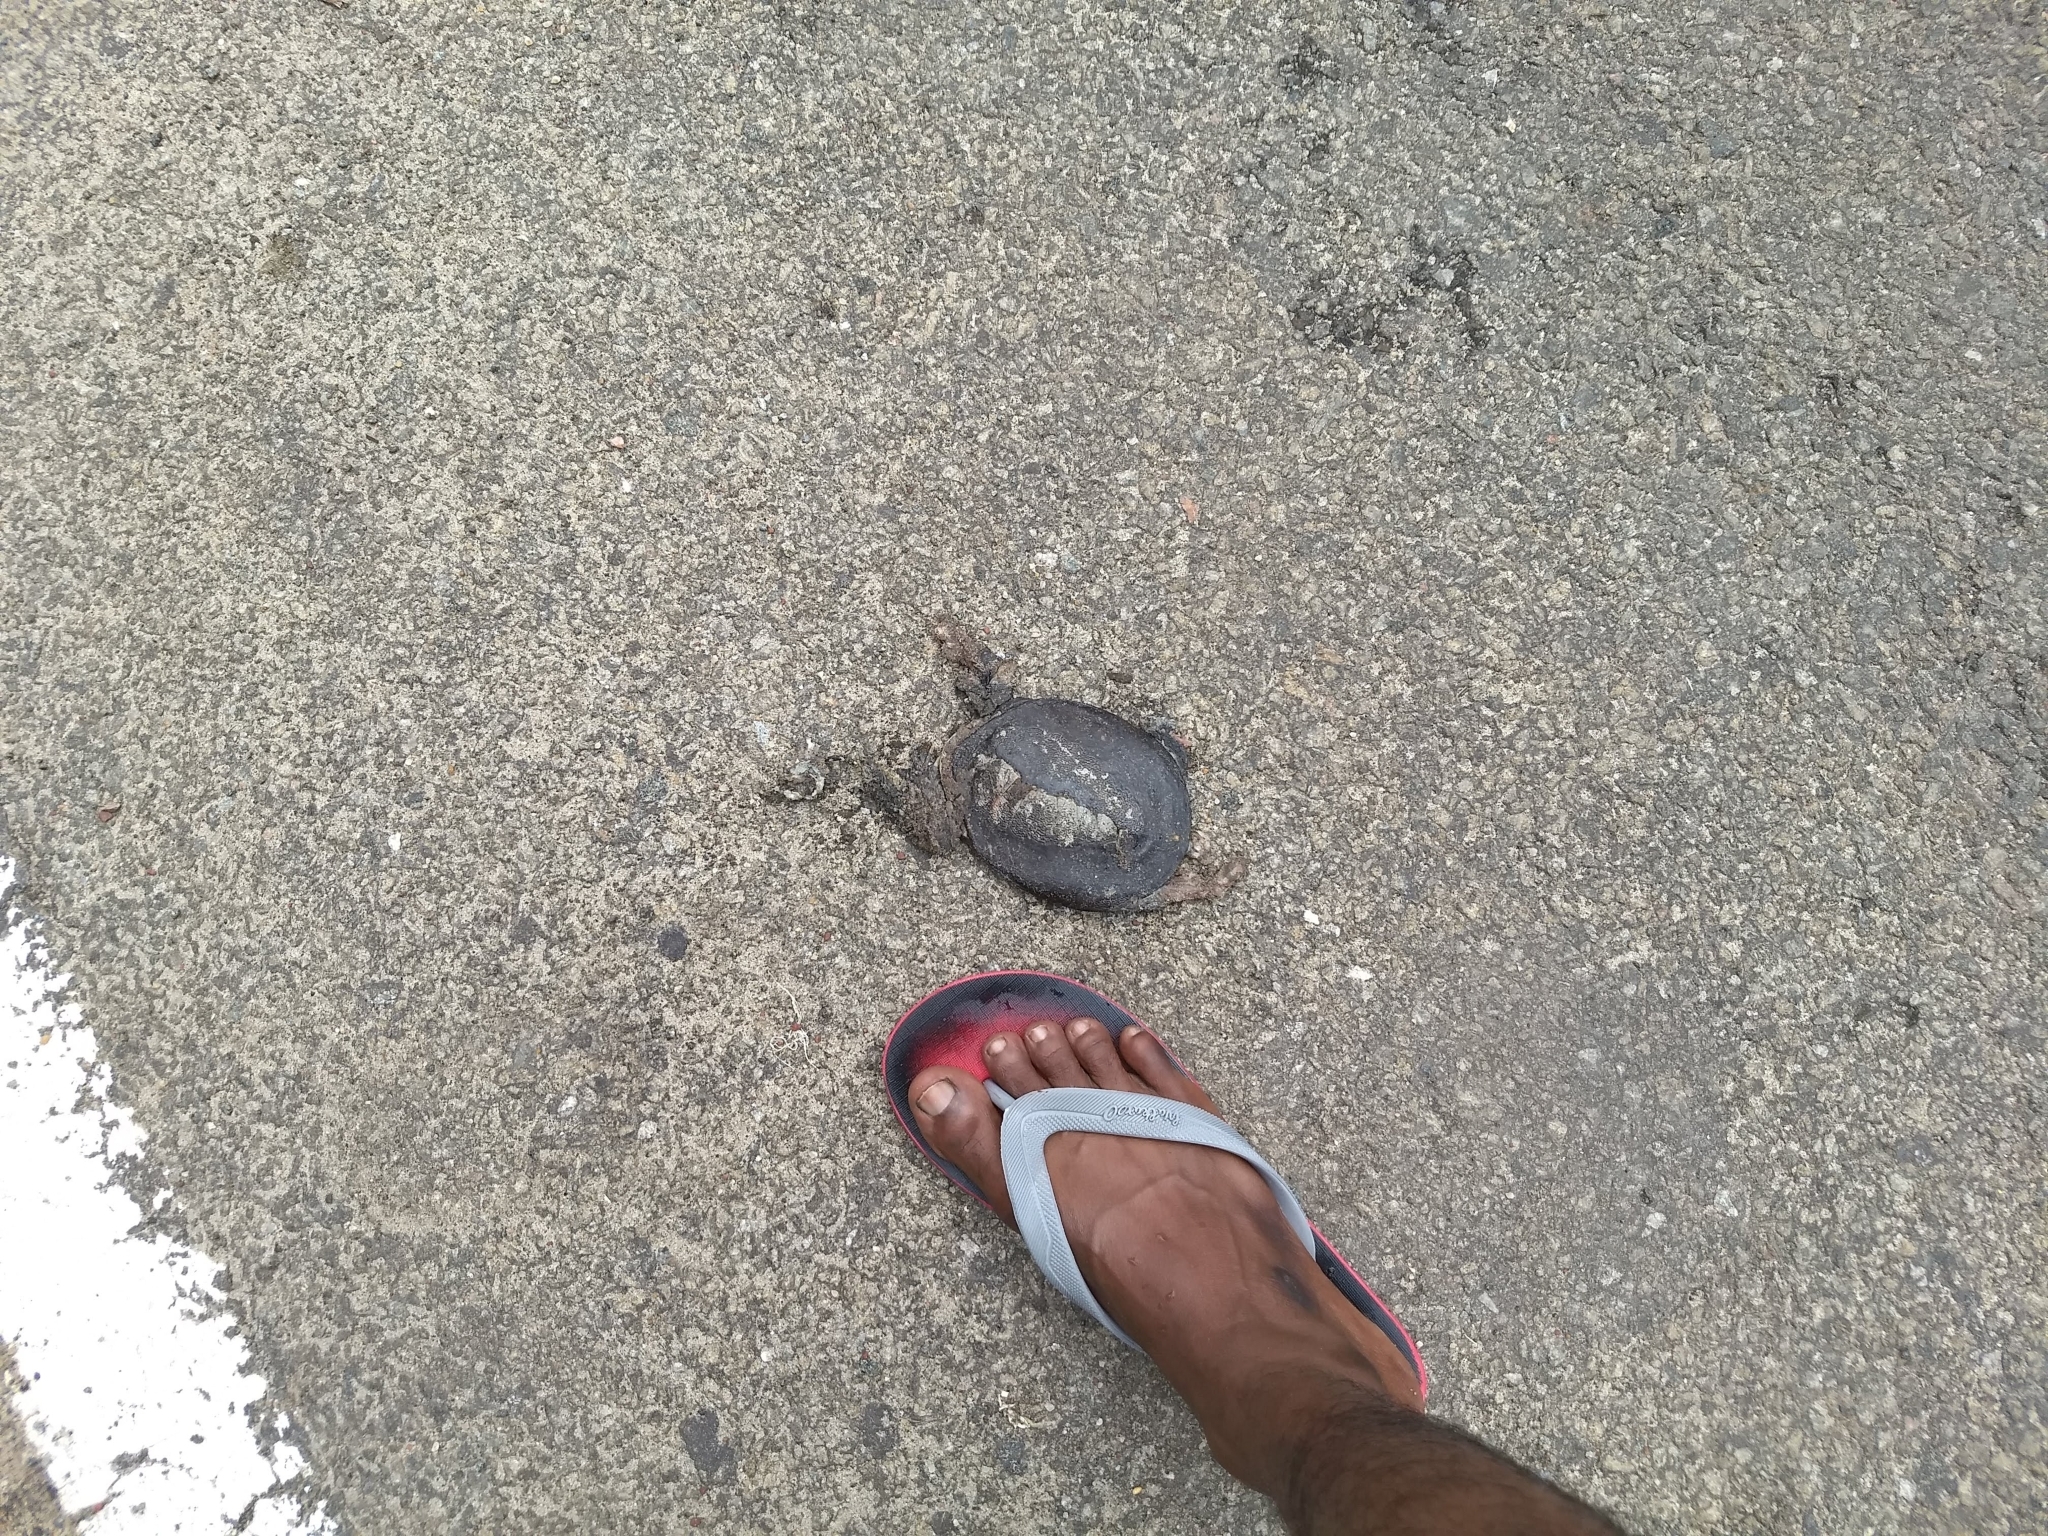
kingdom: Animalia
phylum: Chordata
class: Testudines
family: Trionychidae
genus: Lissemys
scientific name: Lissemys punctata
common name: Indian flap-shelled turtle
